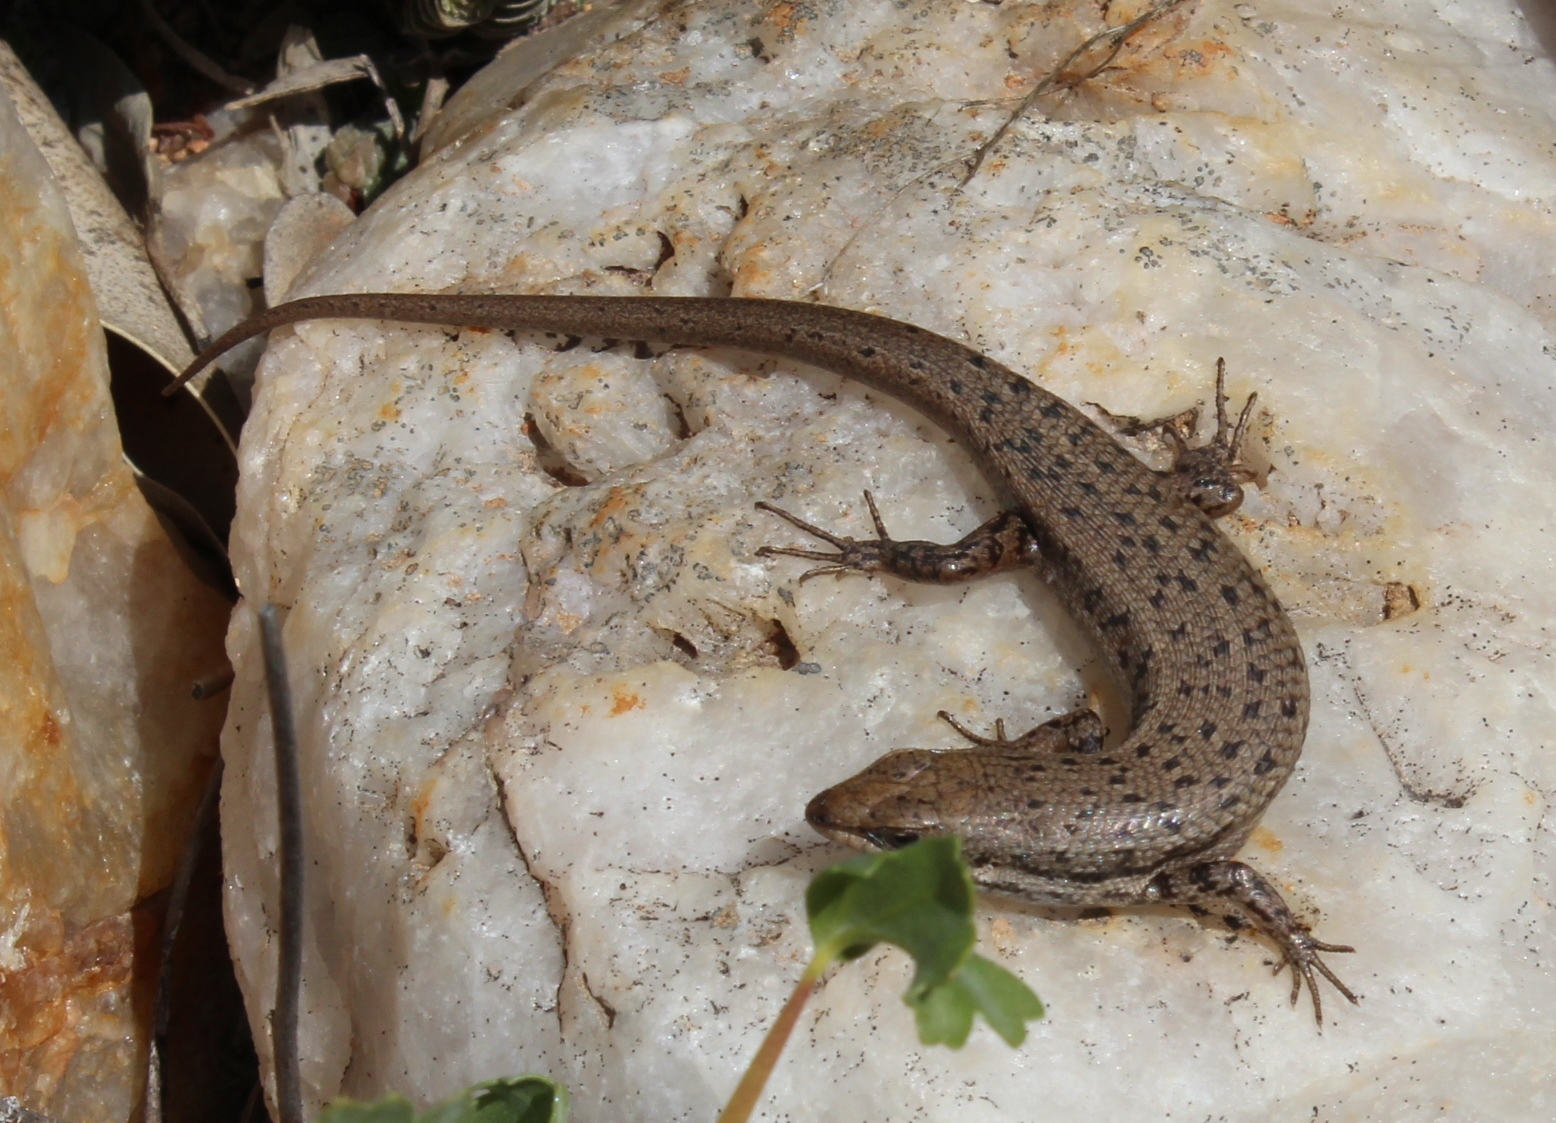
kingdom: Animalia
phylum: Chordata
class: Squamata
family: Scincidae
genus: Trachylepis
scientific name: Trachylepis variegata
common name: Variegated skink
